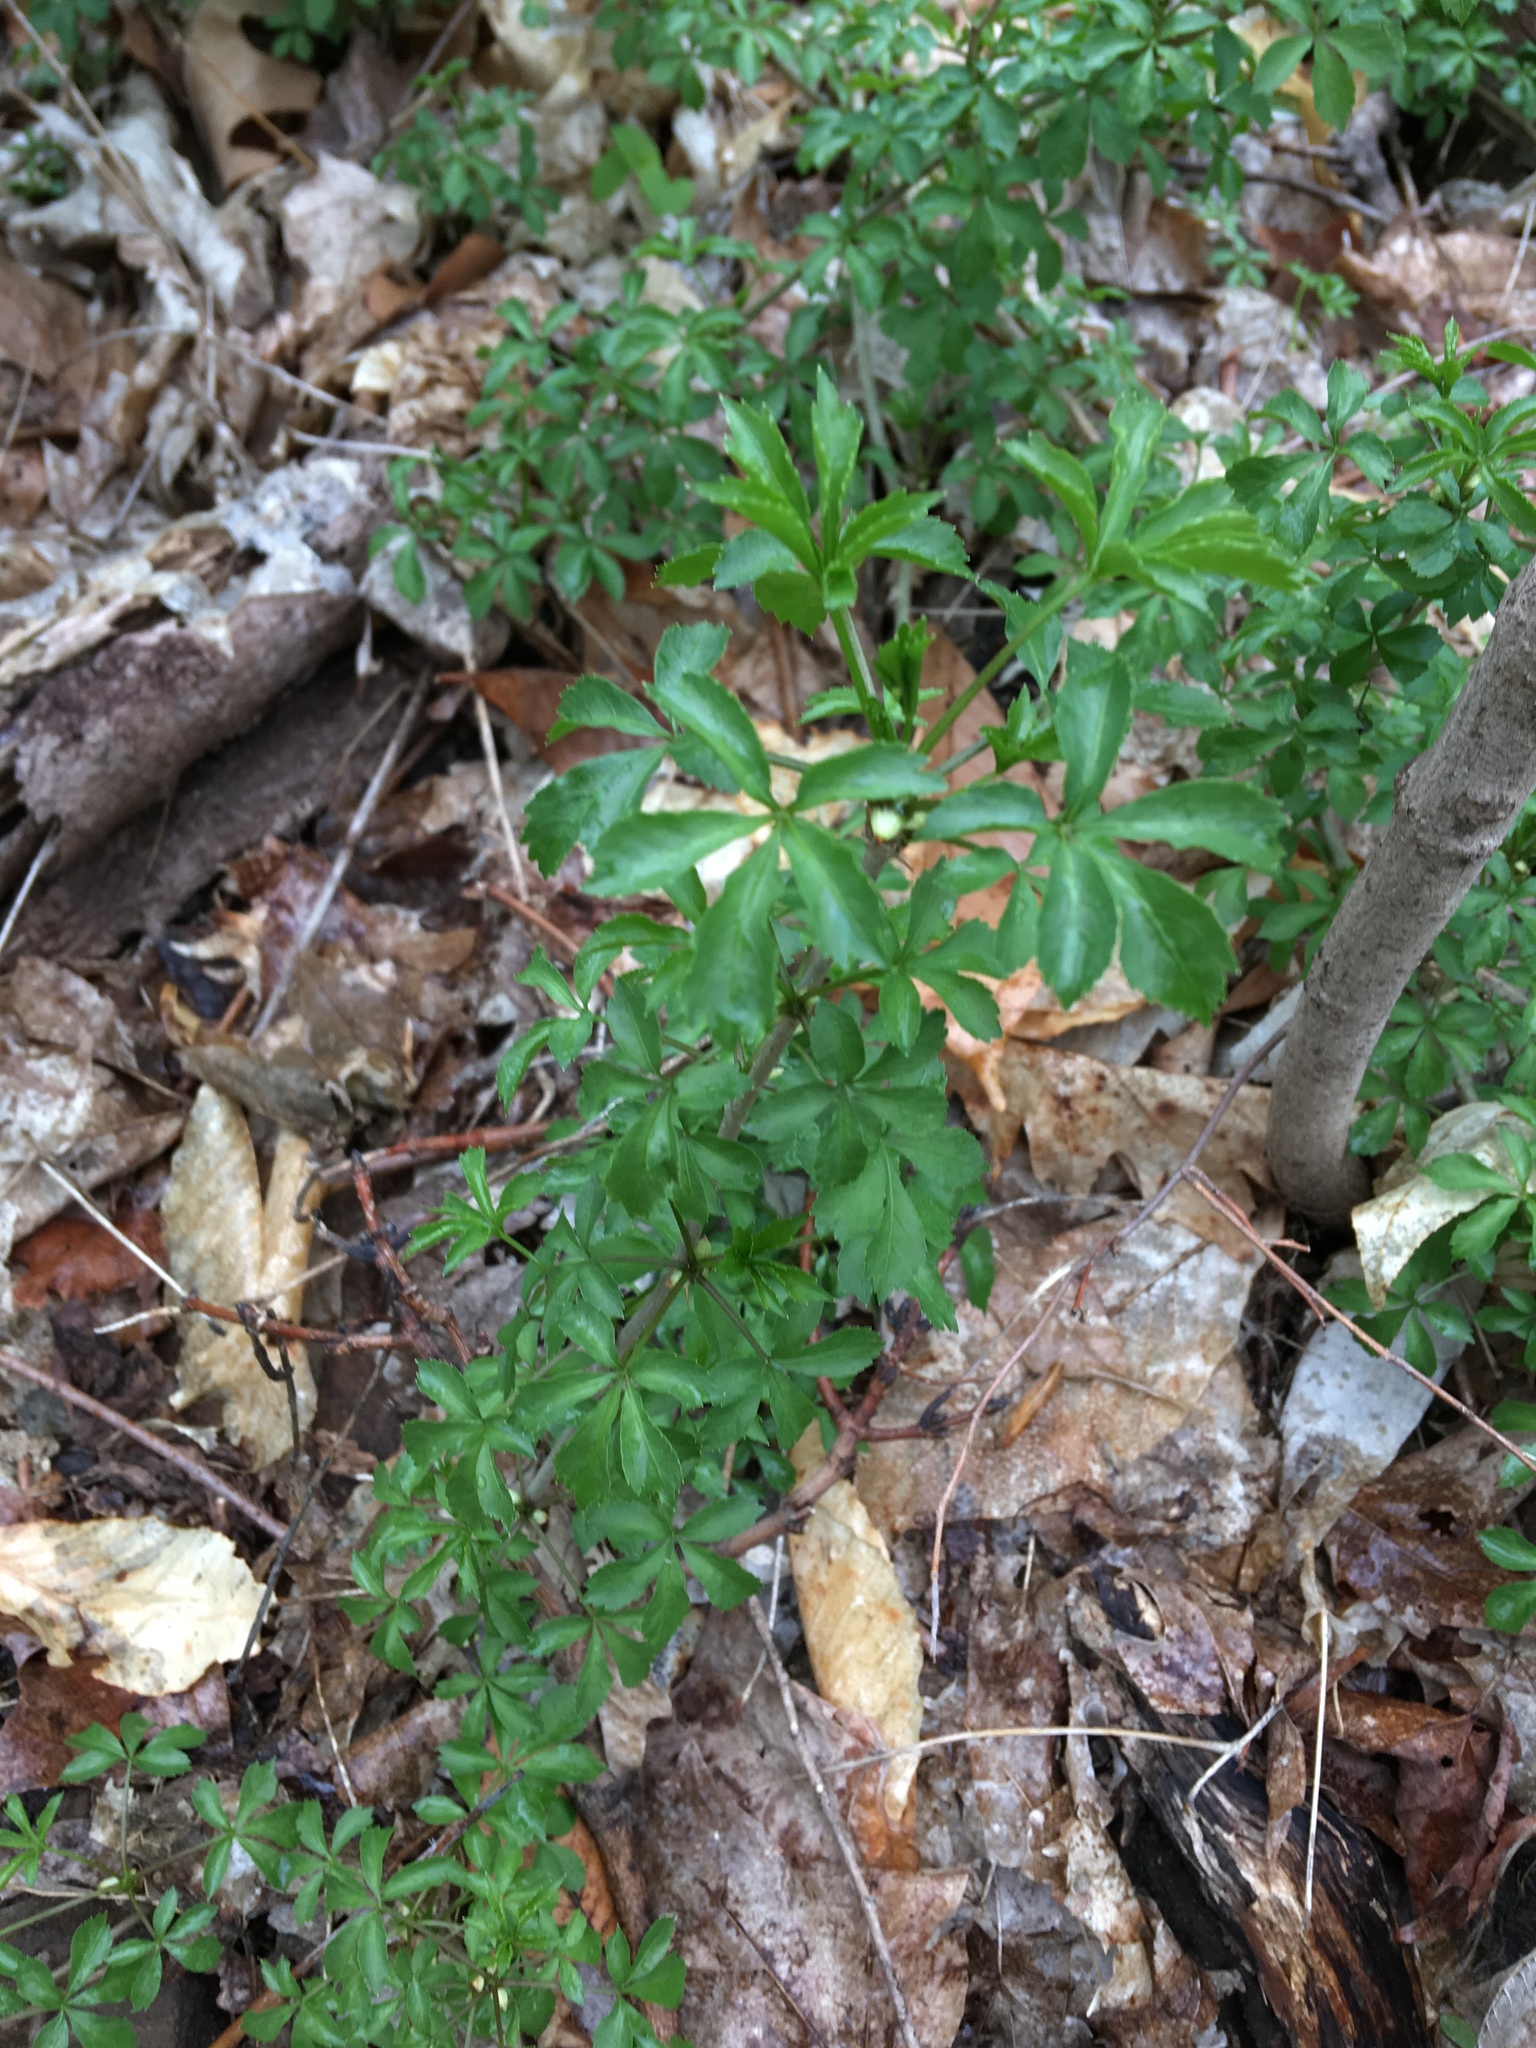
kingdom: Plantae
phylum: Tracheophyta
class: Magnoliopsida
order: Apiales
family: Araliaceae
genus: Eleutherococcus
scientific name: Eleutherococcus sieboldianus
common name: Ginseng
